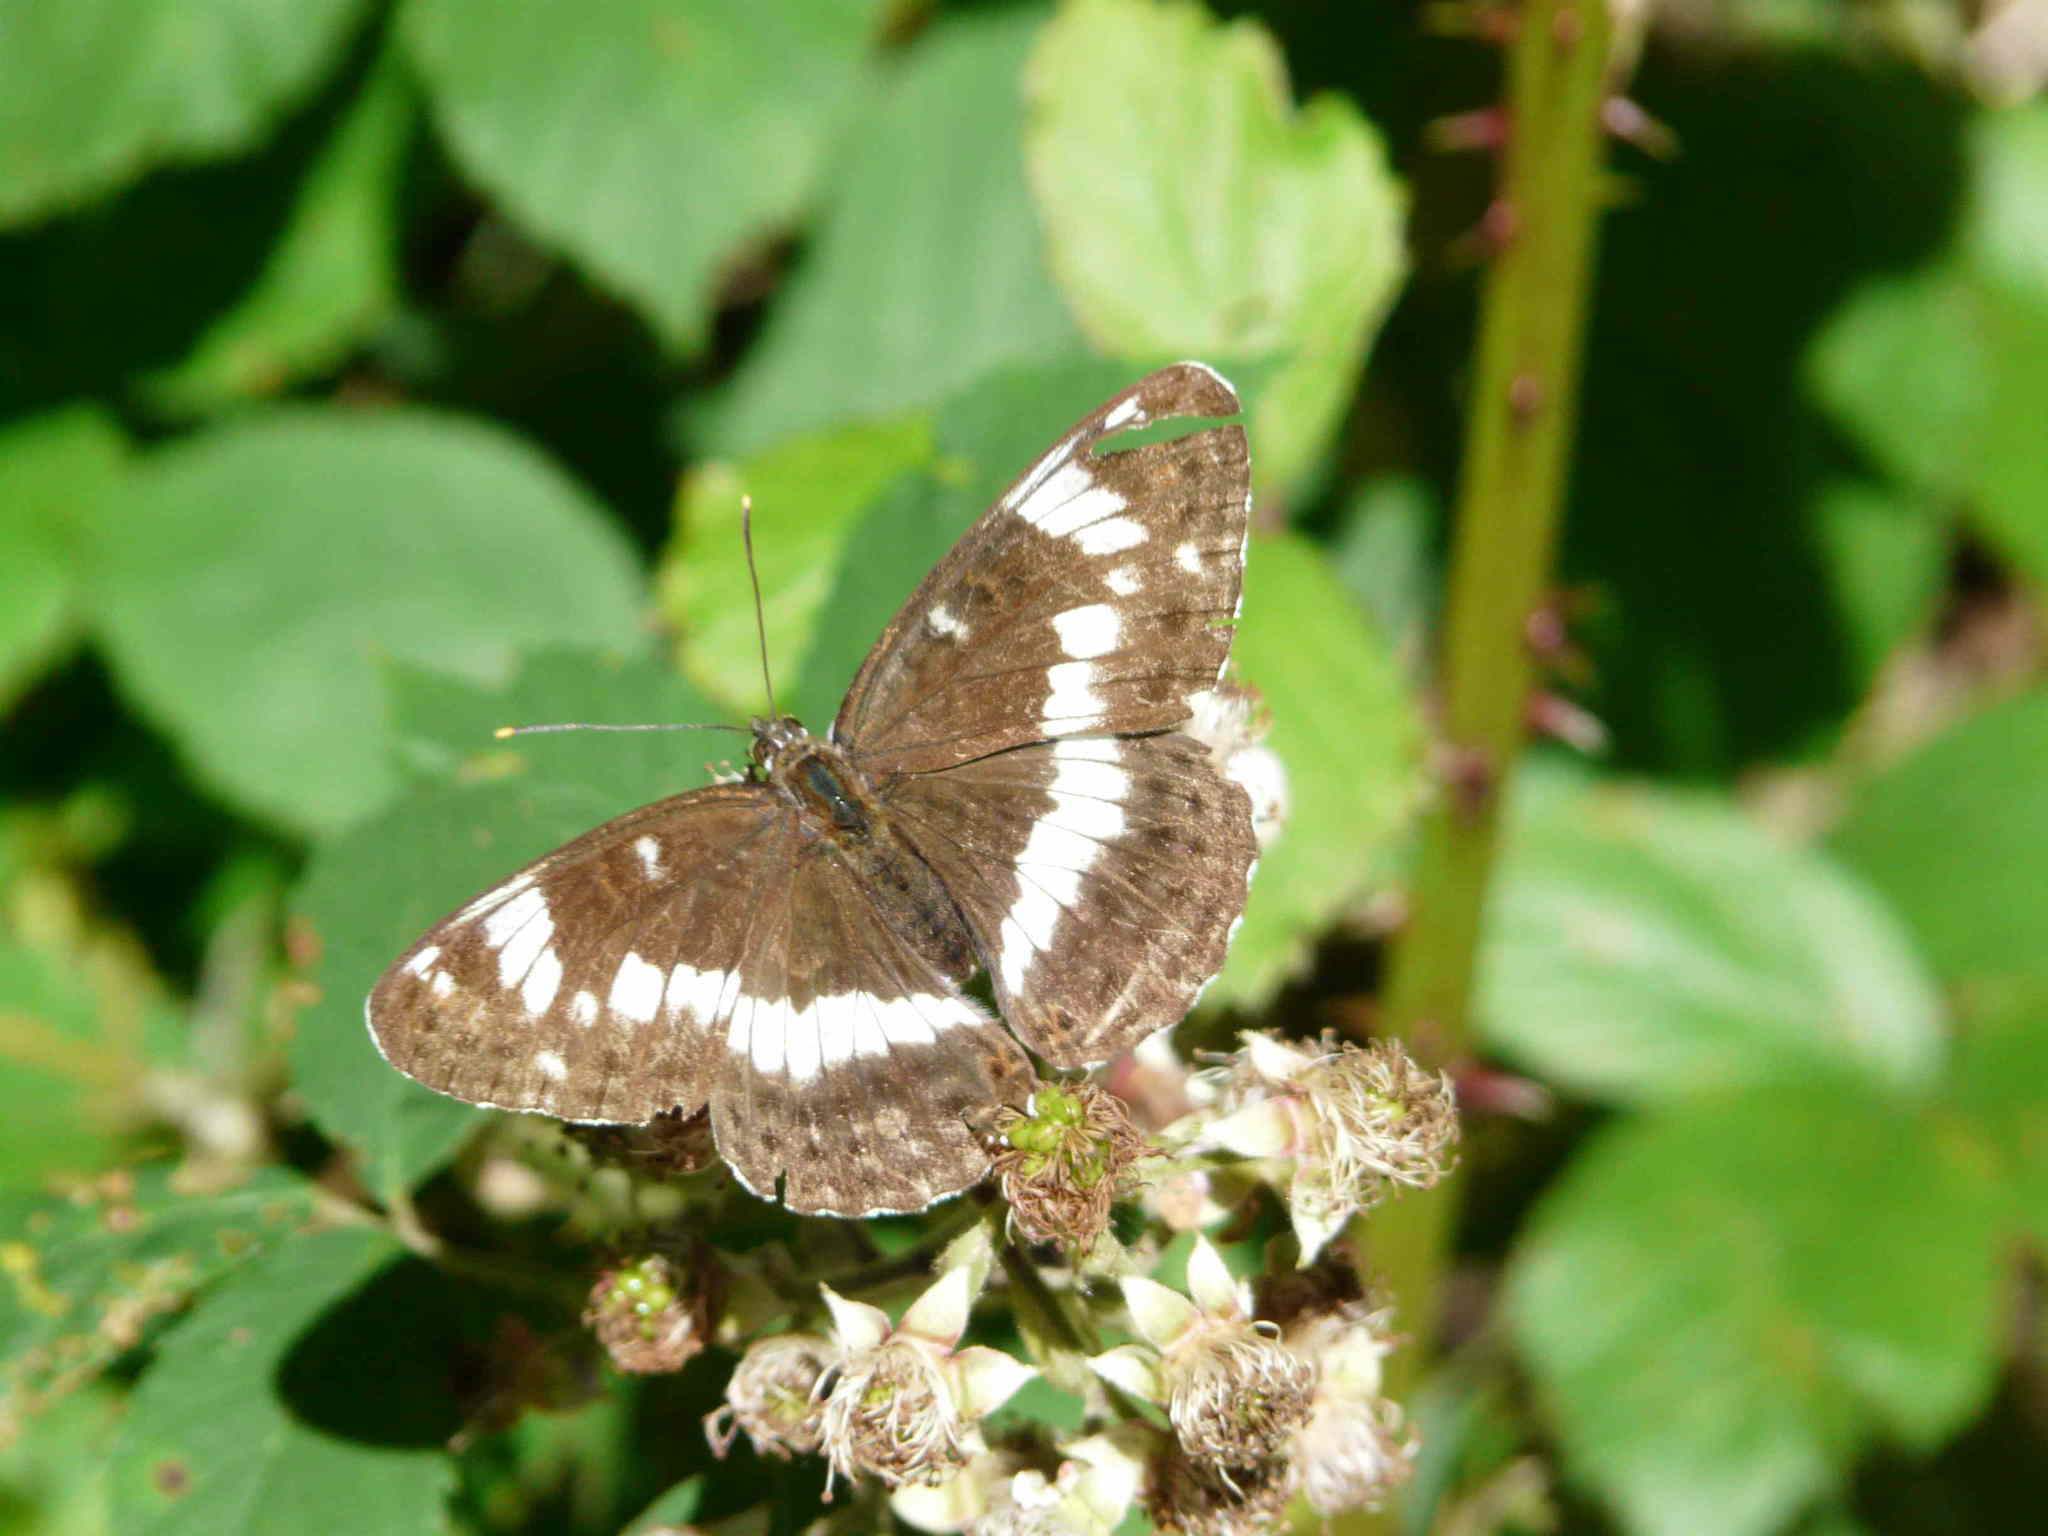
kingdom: Animalia
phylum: Arthropoda
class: Insecta
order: Lepidoptera
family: Nymphalidae
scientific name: Nymphalidae
